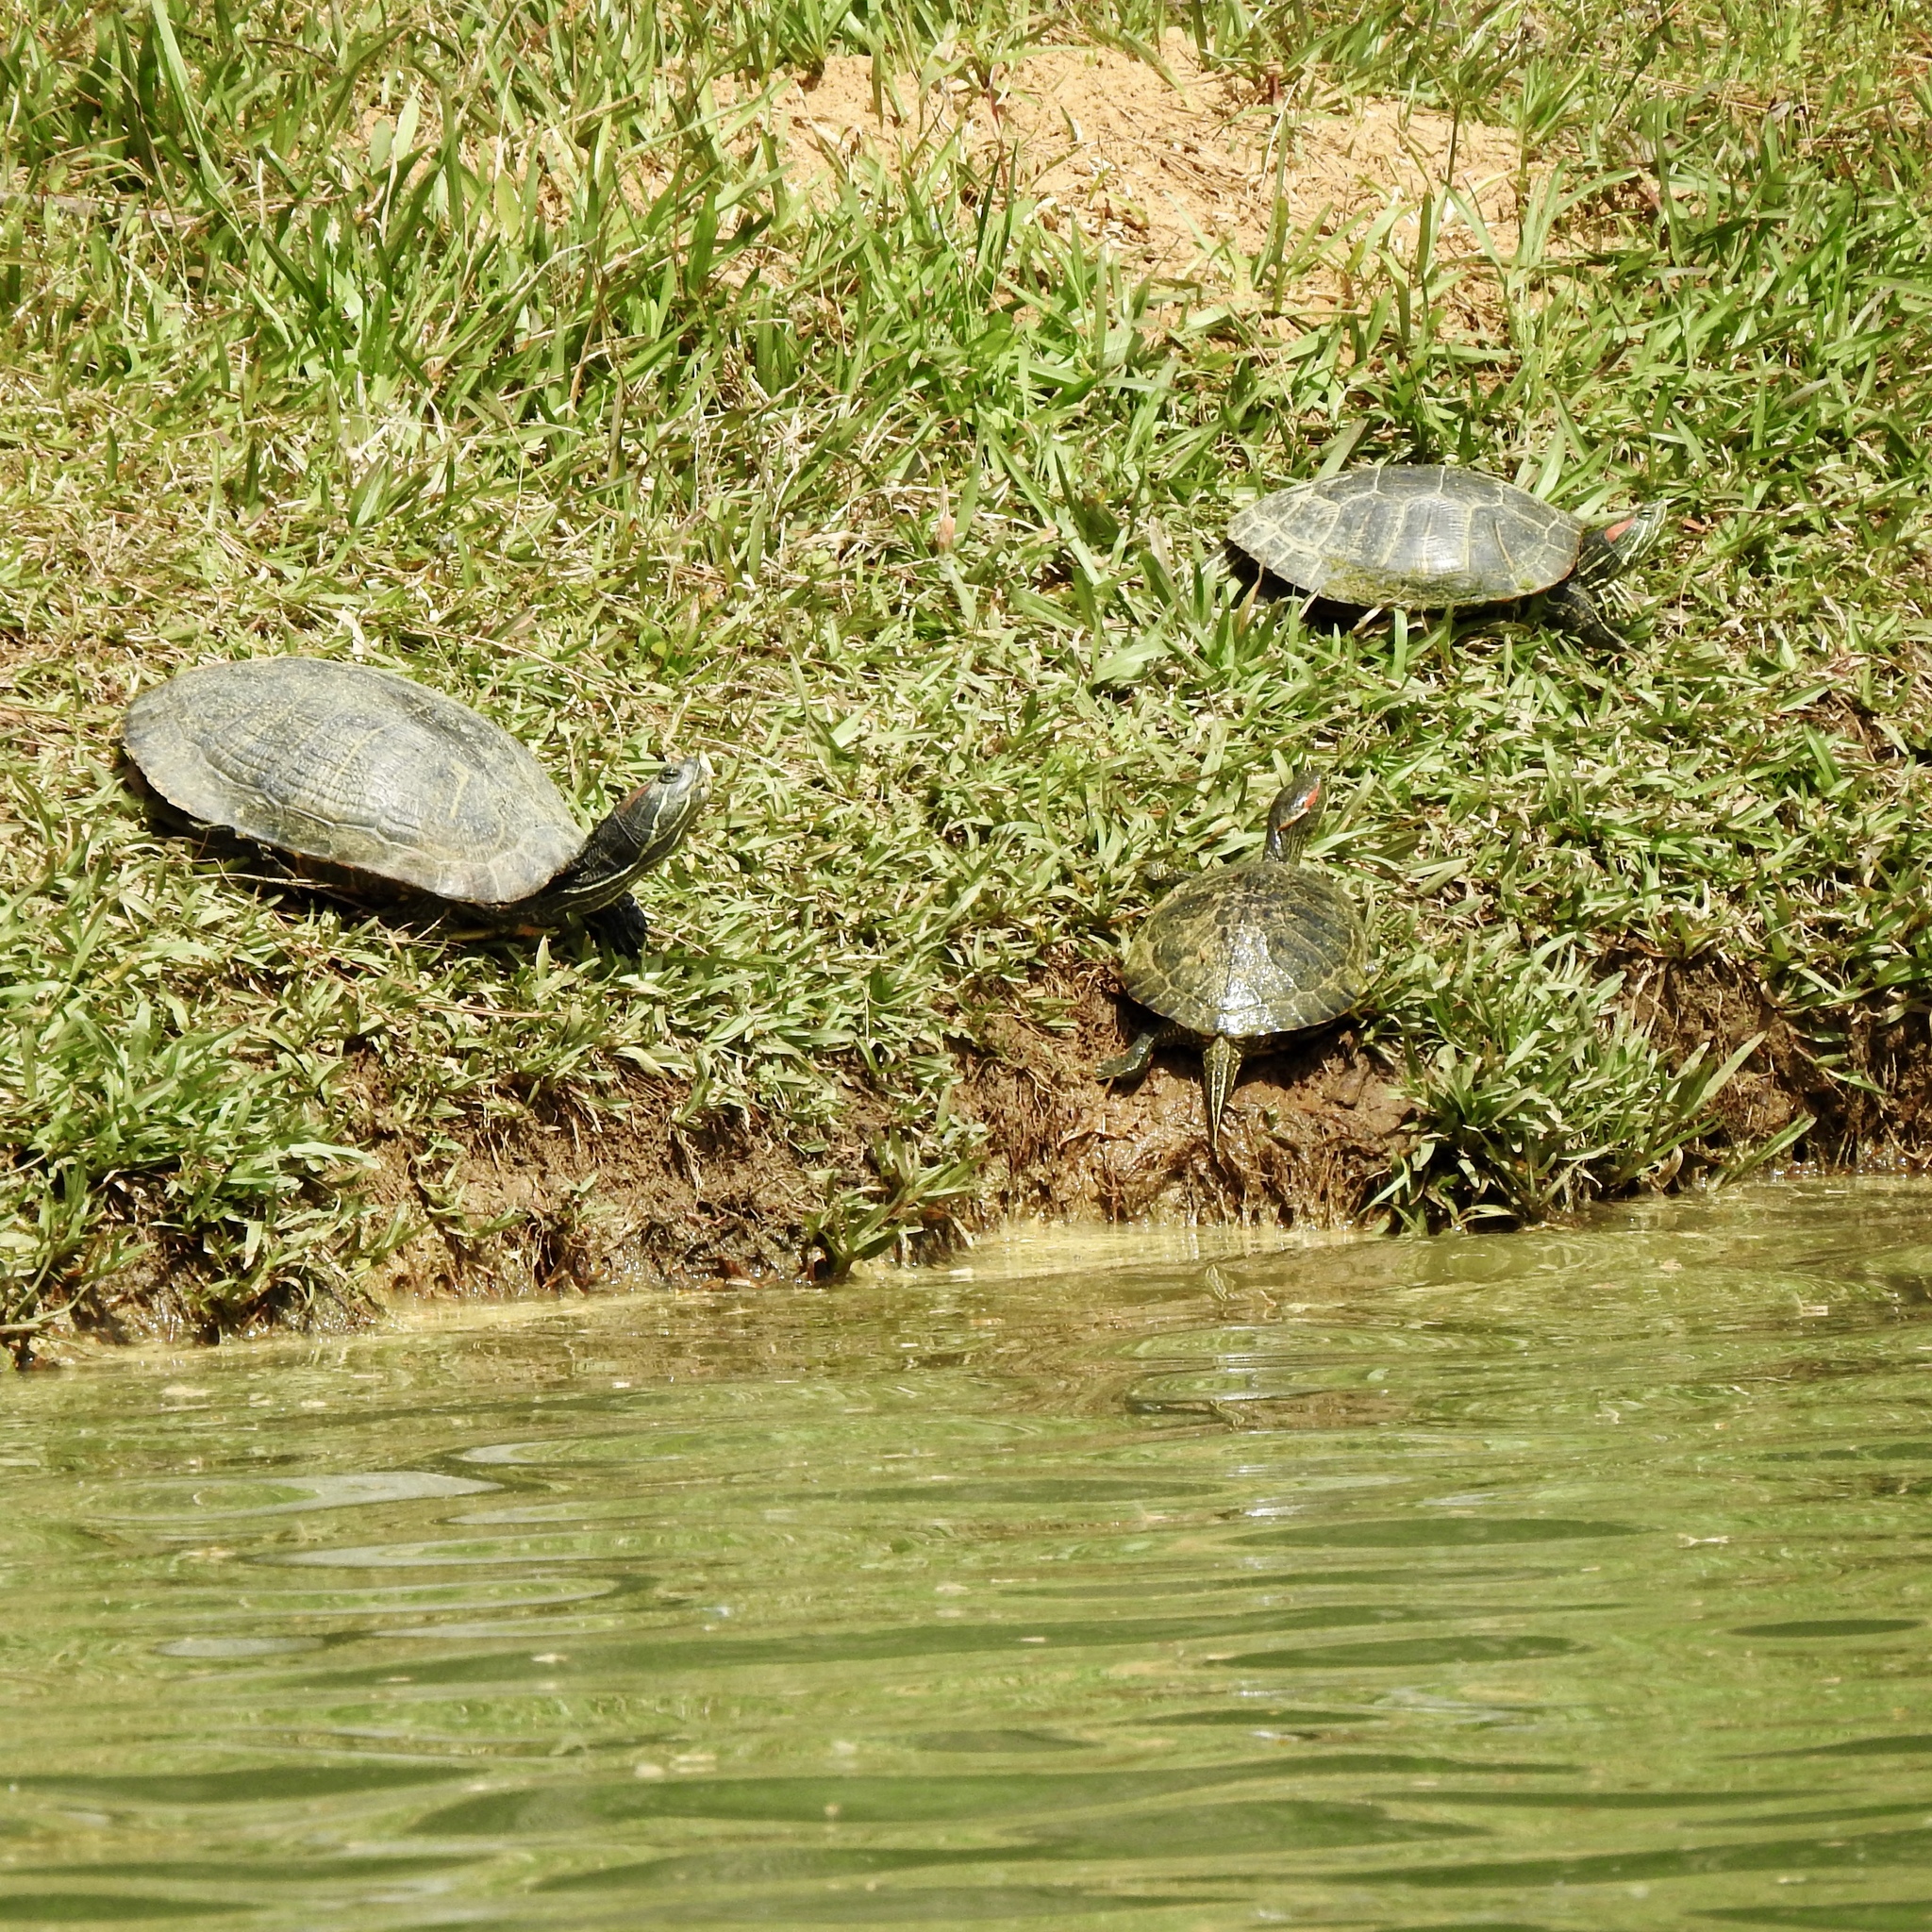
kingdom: Animalia
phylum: Chordata
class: Testudines
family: Emydidae
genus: Trachemys
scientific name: Trachemys scripta
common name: Slider
